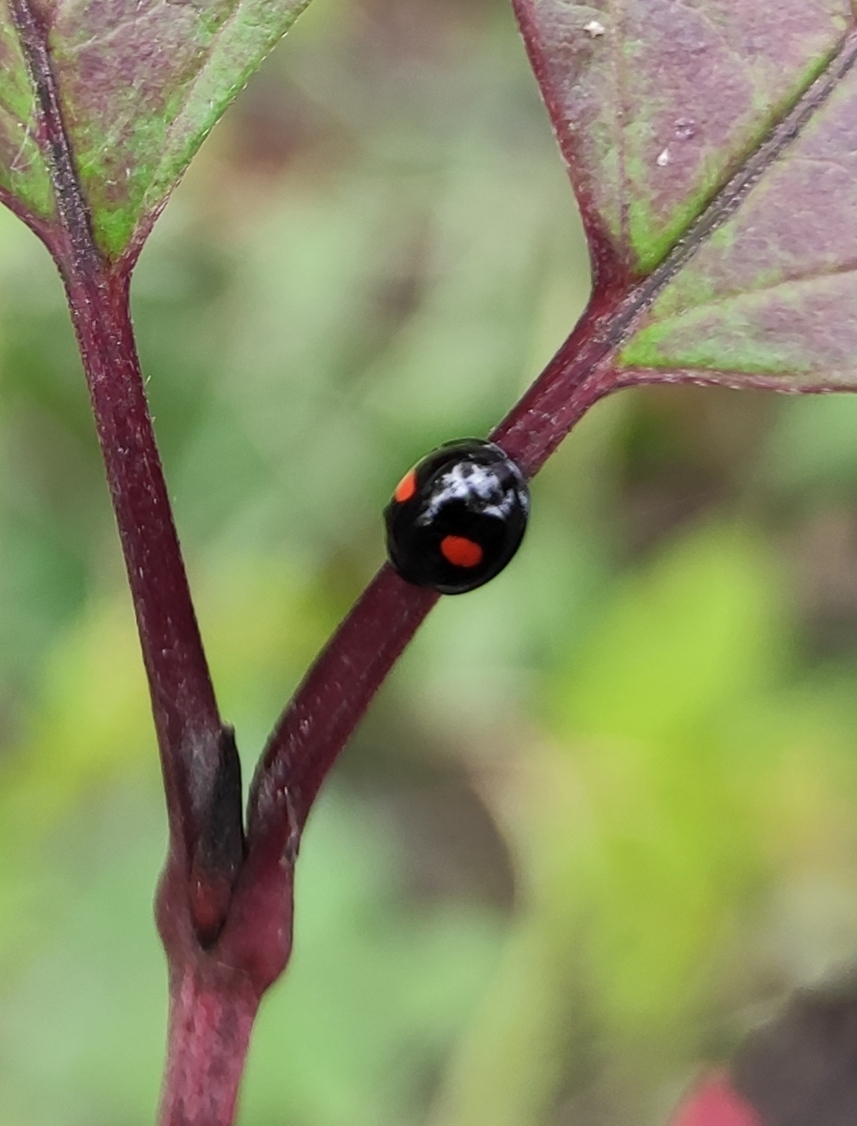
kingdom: Animalia
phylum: Arthropoda
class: Insecta
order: Coleoptera
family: Coccinellidae
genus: Chilocorus
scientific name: Chilocorus renipustulatus
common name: Kidney-spot ladybird
